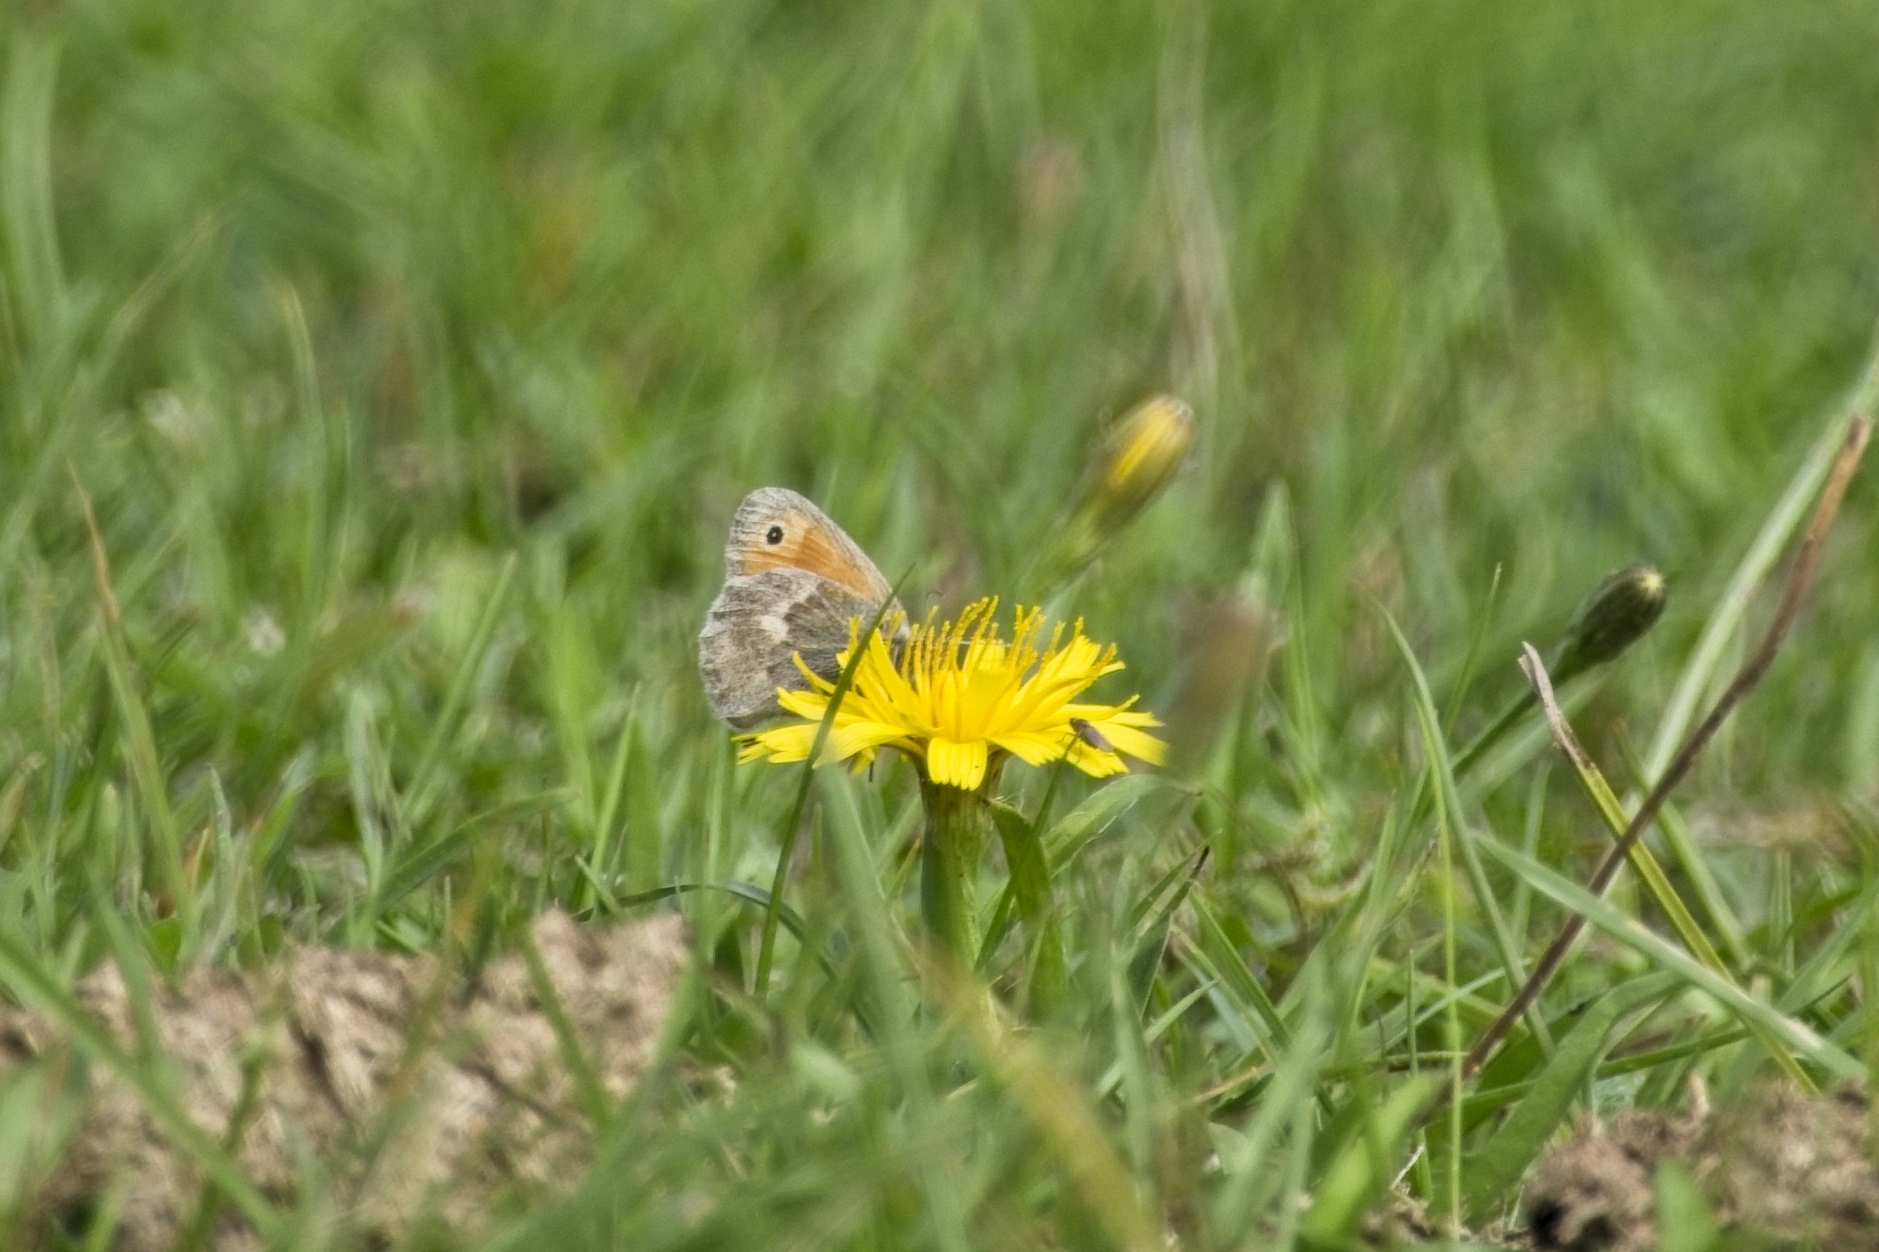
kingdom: Animalia
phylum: Arthropoda
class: Insecta
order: Lepidoptera
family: Nymphalidae
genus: Coenonympha
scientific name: Coenonympha pamphilus
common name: Small heath
